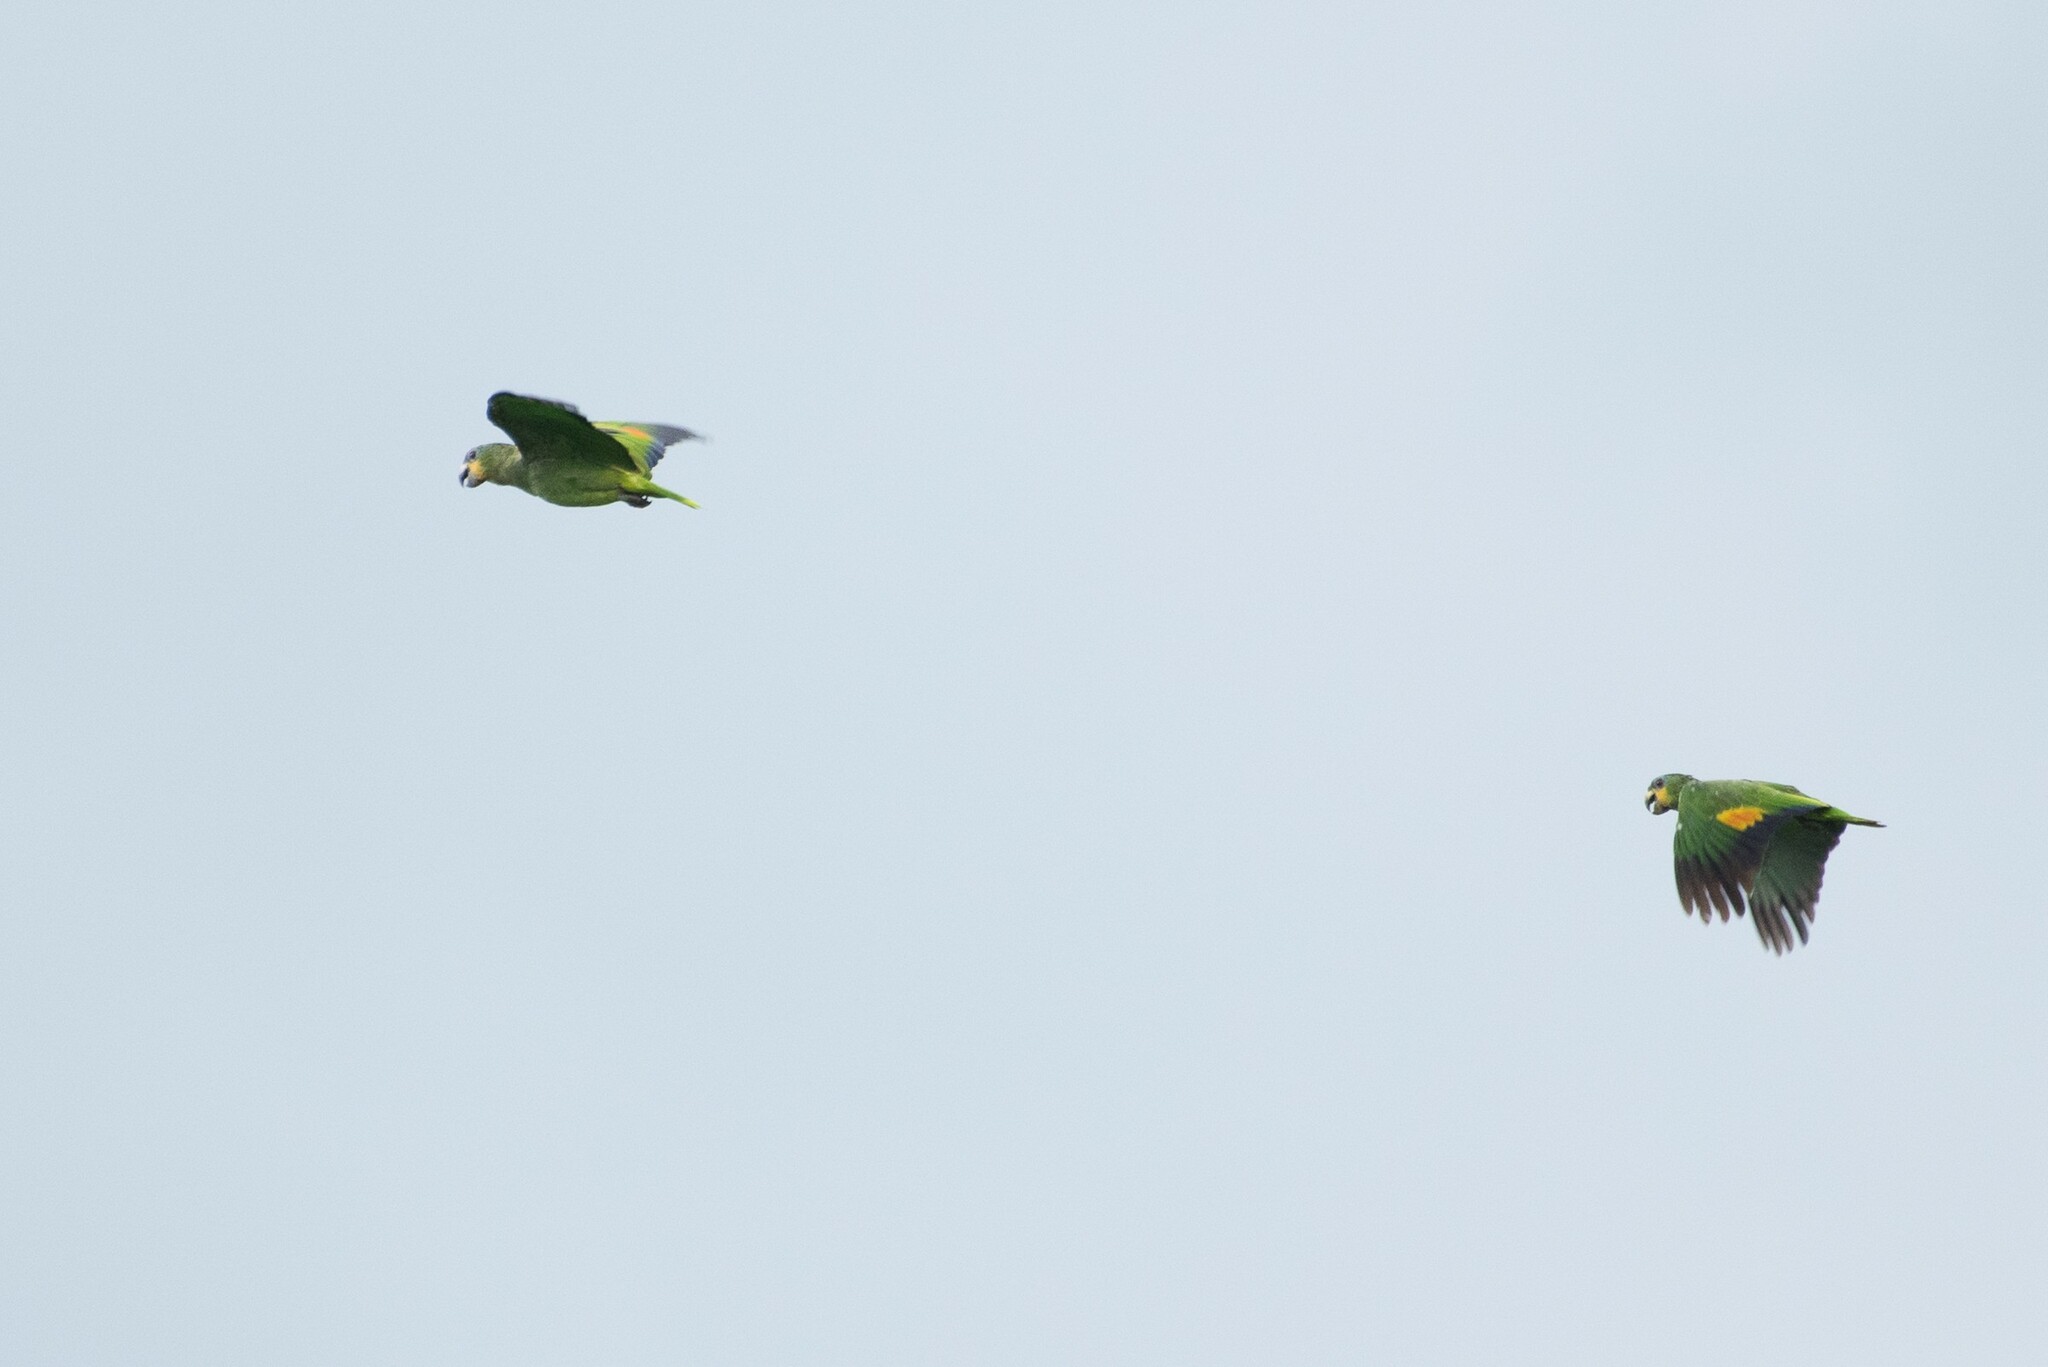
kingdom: Animalia
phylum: Chordata
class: Aves
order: Psittaciformes
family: Psittacidae
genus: Amazona
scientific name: Amazona amazonica
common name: Orange-winged amazon
